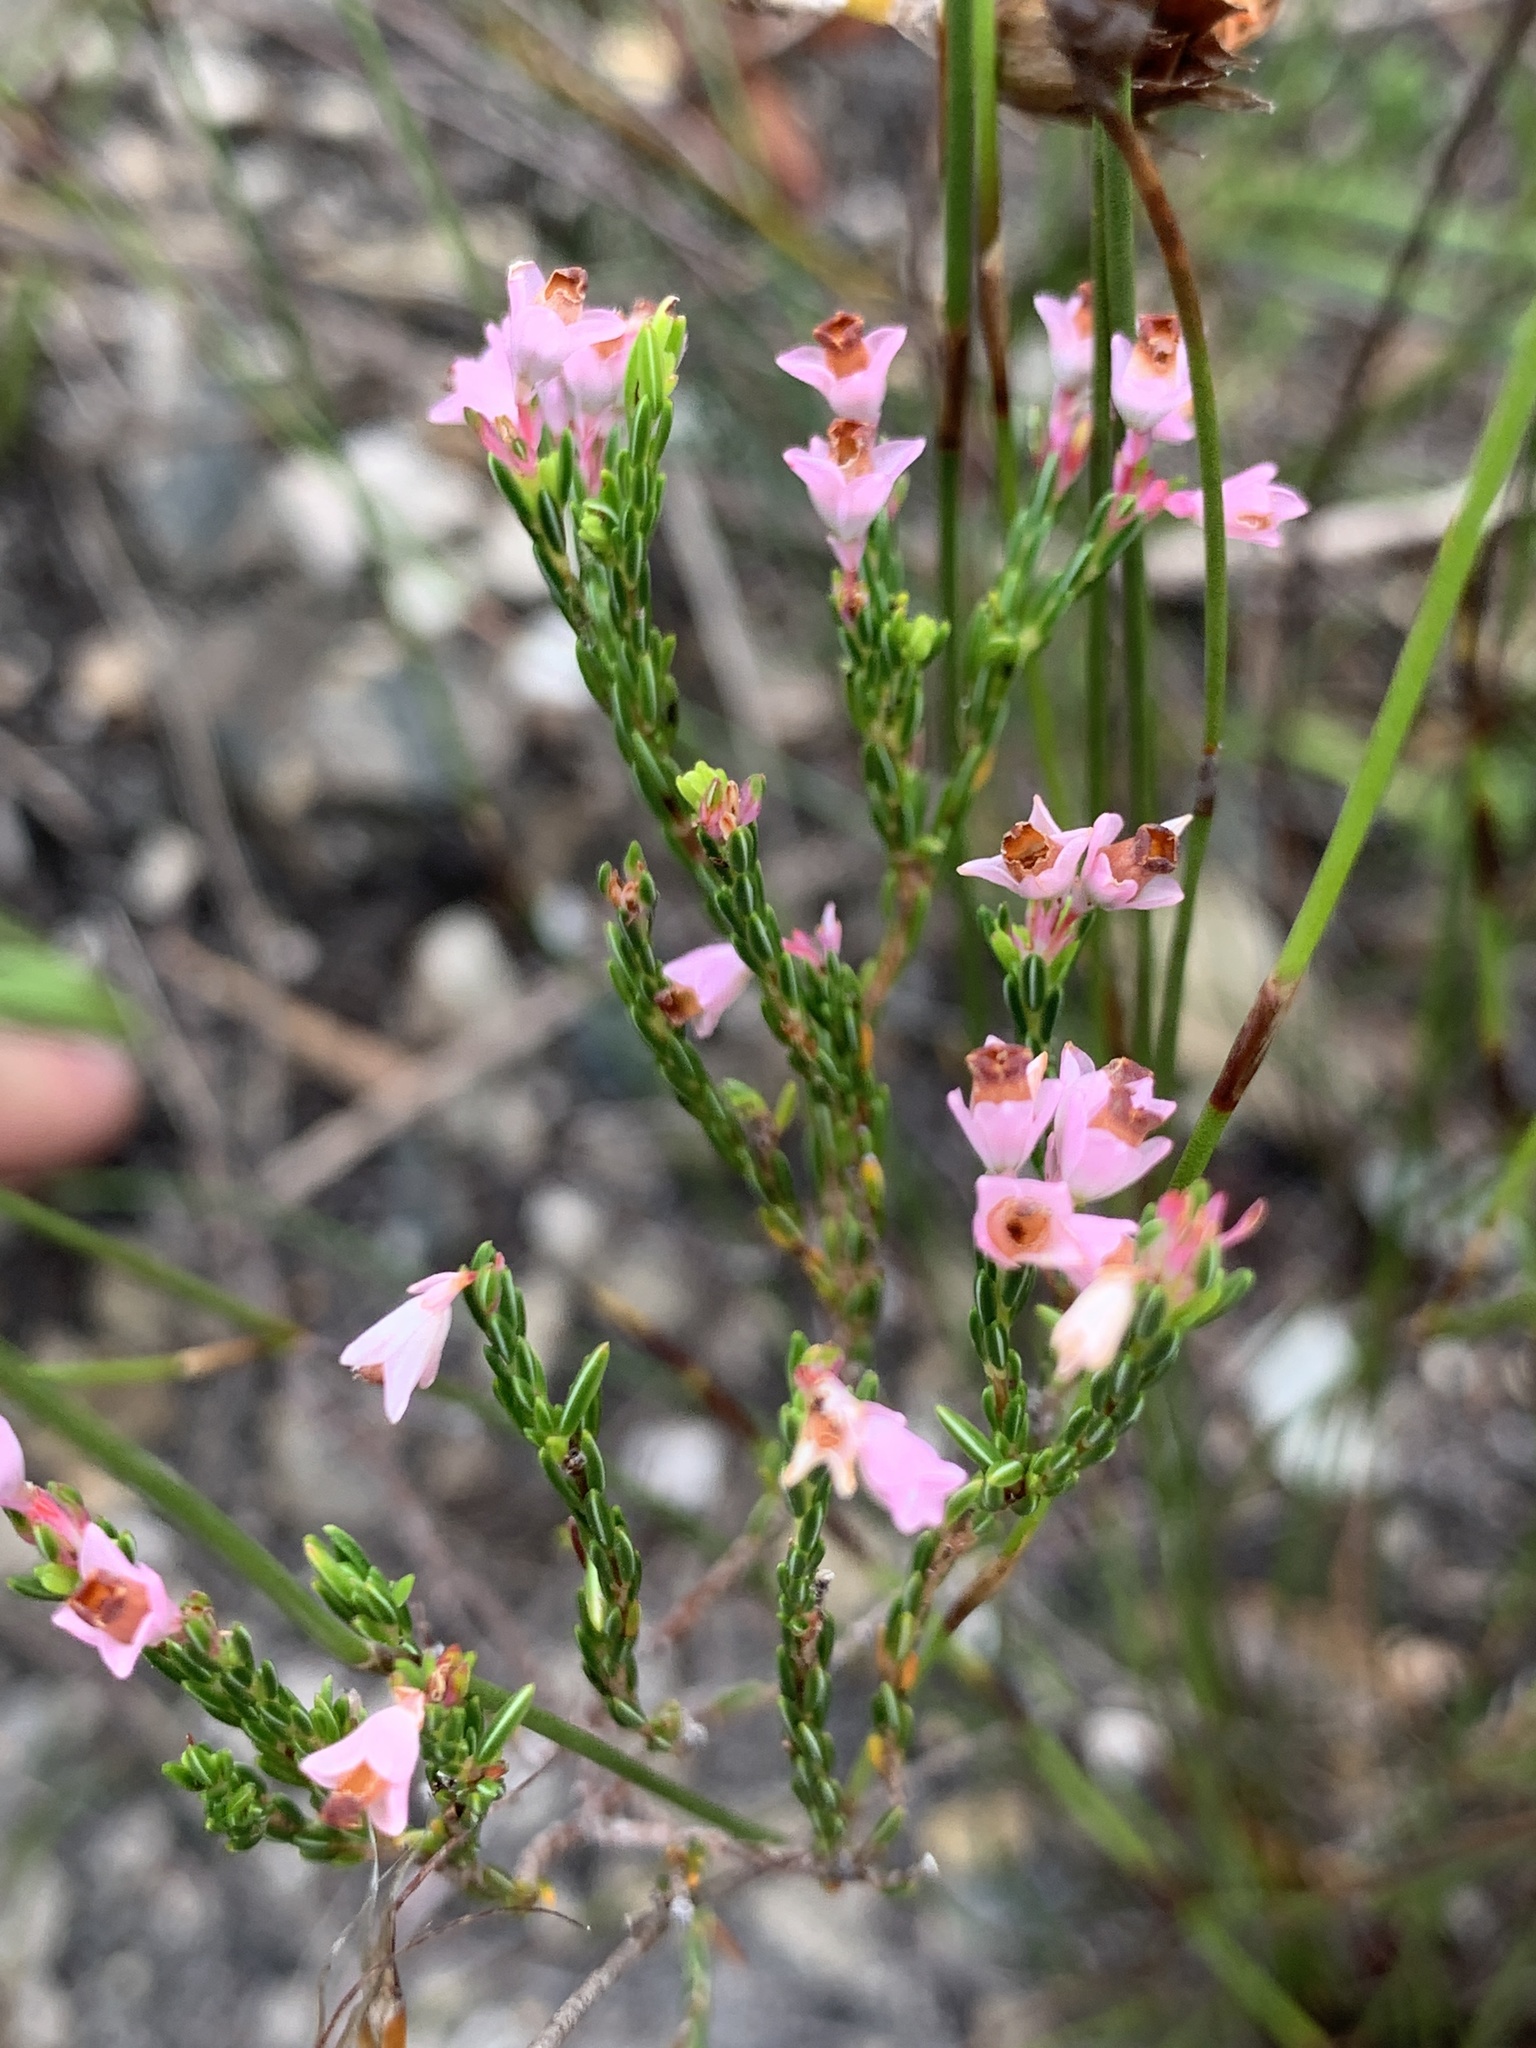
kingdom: Plantae
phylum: Tracheophyta
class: Magnoliopsida
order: Ericales
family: Ericaceae
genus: Erica
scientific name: Erica corifolia
